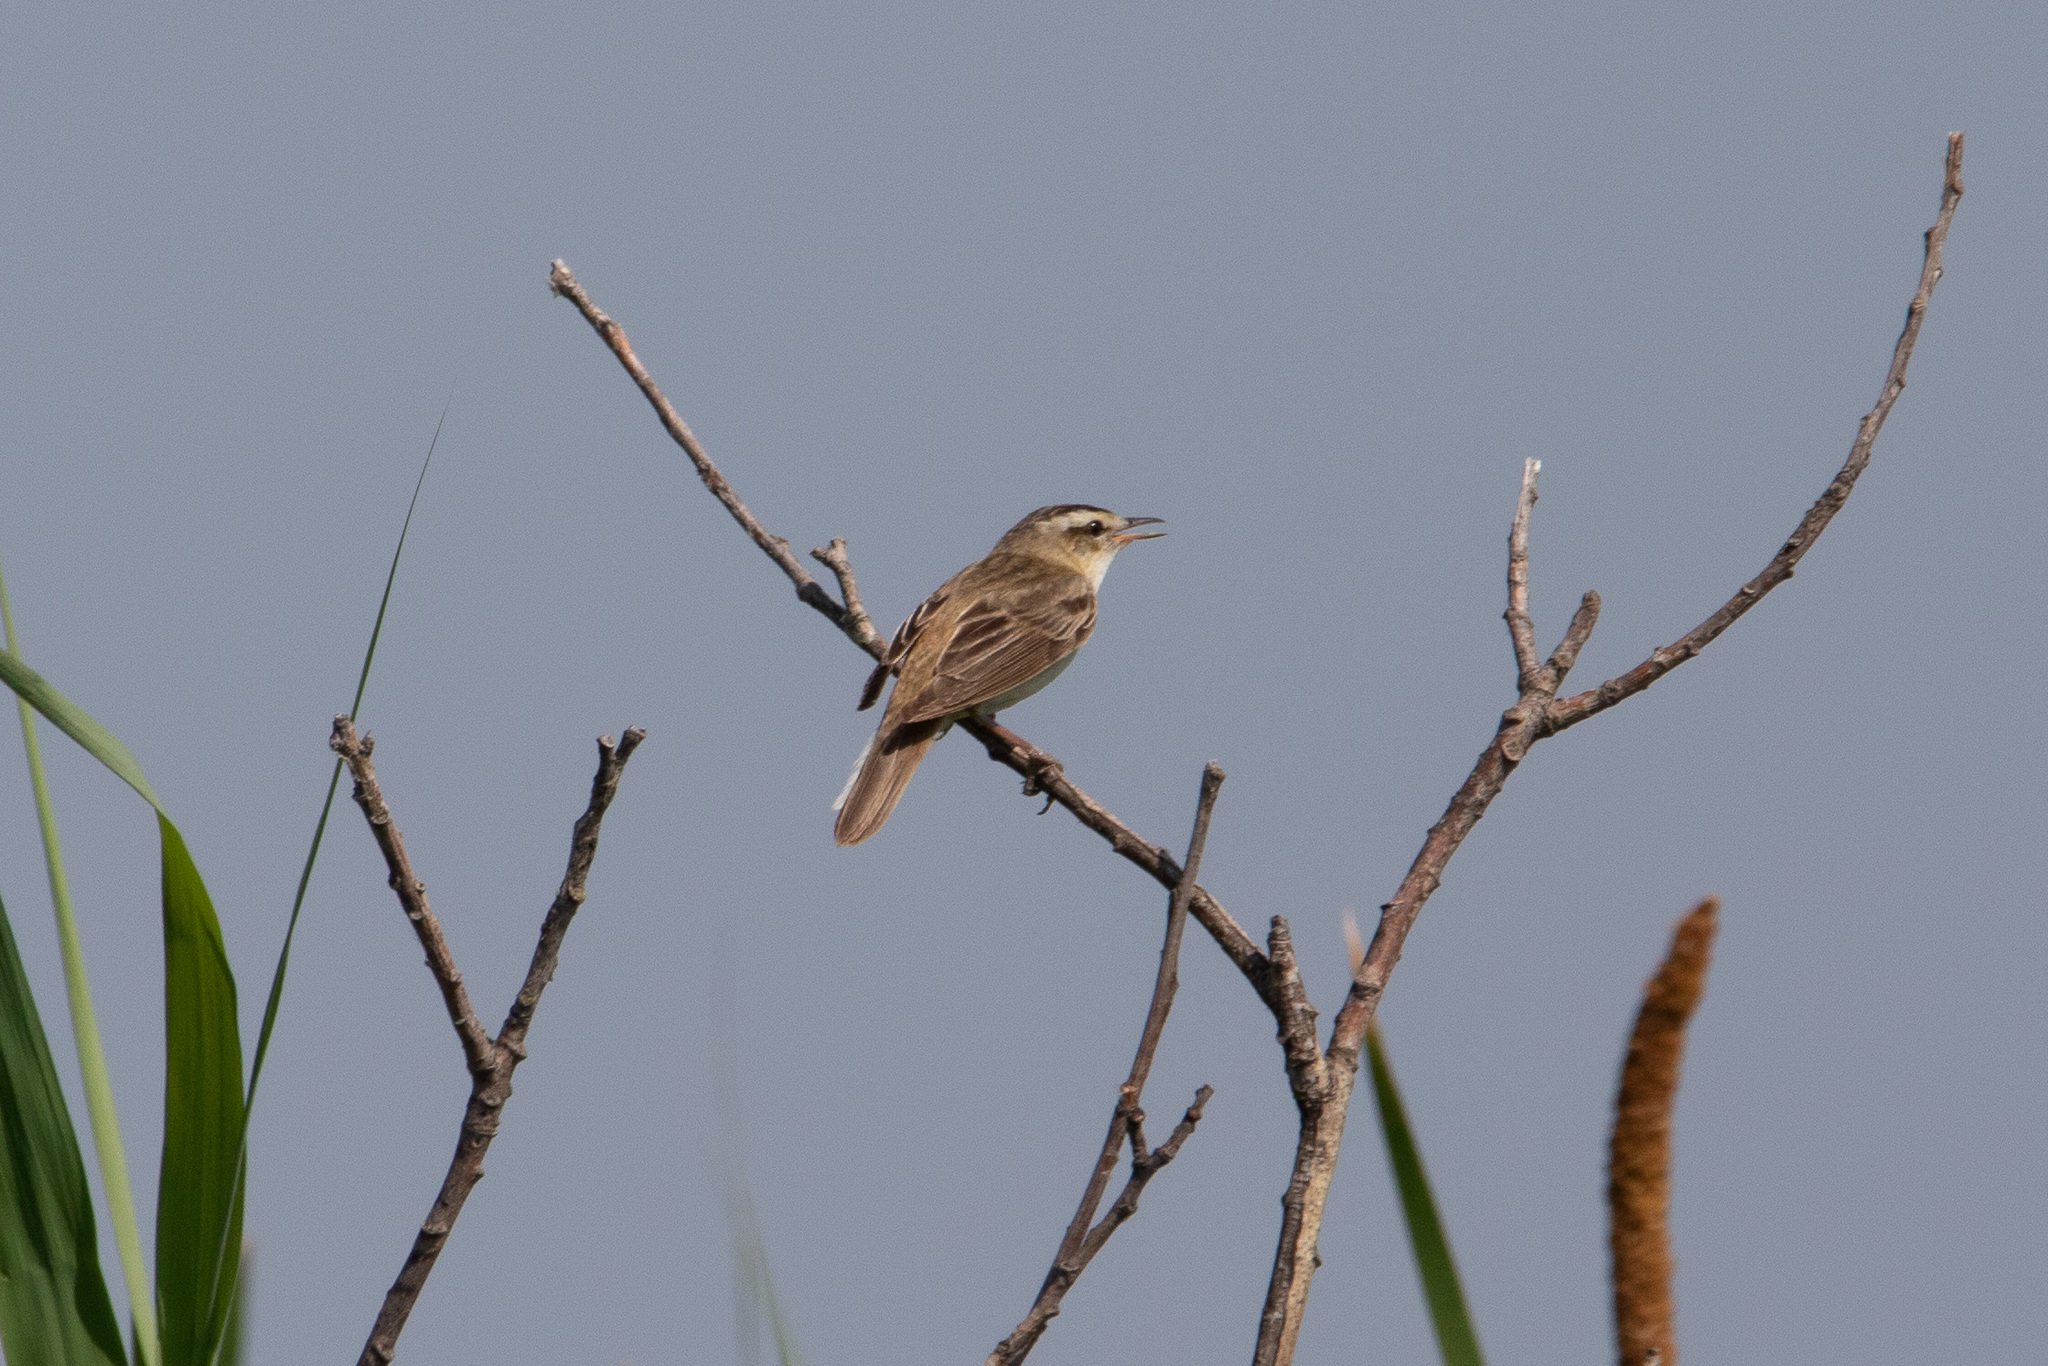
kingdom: Animalia
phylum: Chordata
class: Aves
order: Passeriformes
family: Acrocephalidae
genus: Acrocephalus
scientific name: Acrocephalus schoenobaenus
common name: Sedge warbler
